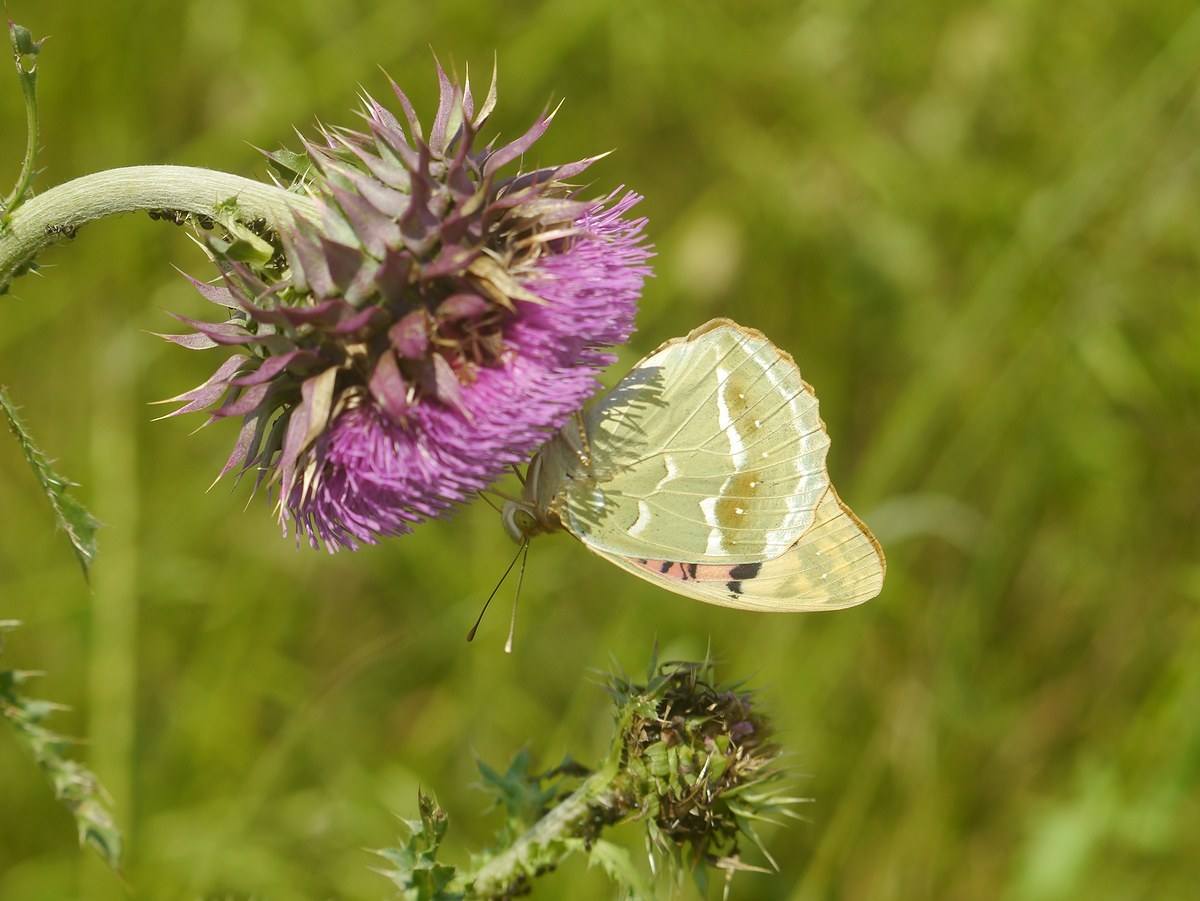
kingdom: Animalia
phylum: Arthropoda
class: Insecta
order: Lepidoptera
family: Nymphalidae
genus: Damora
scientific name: Damora pandora
